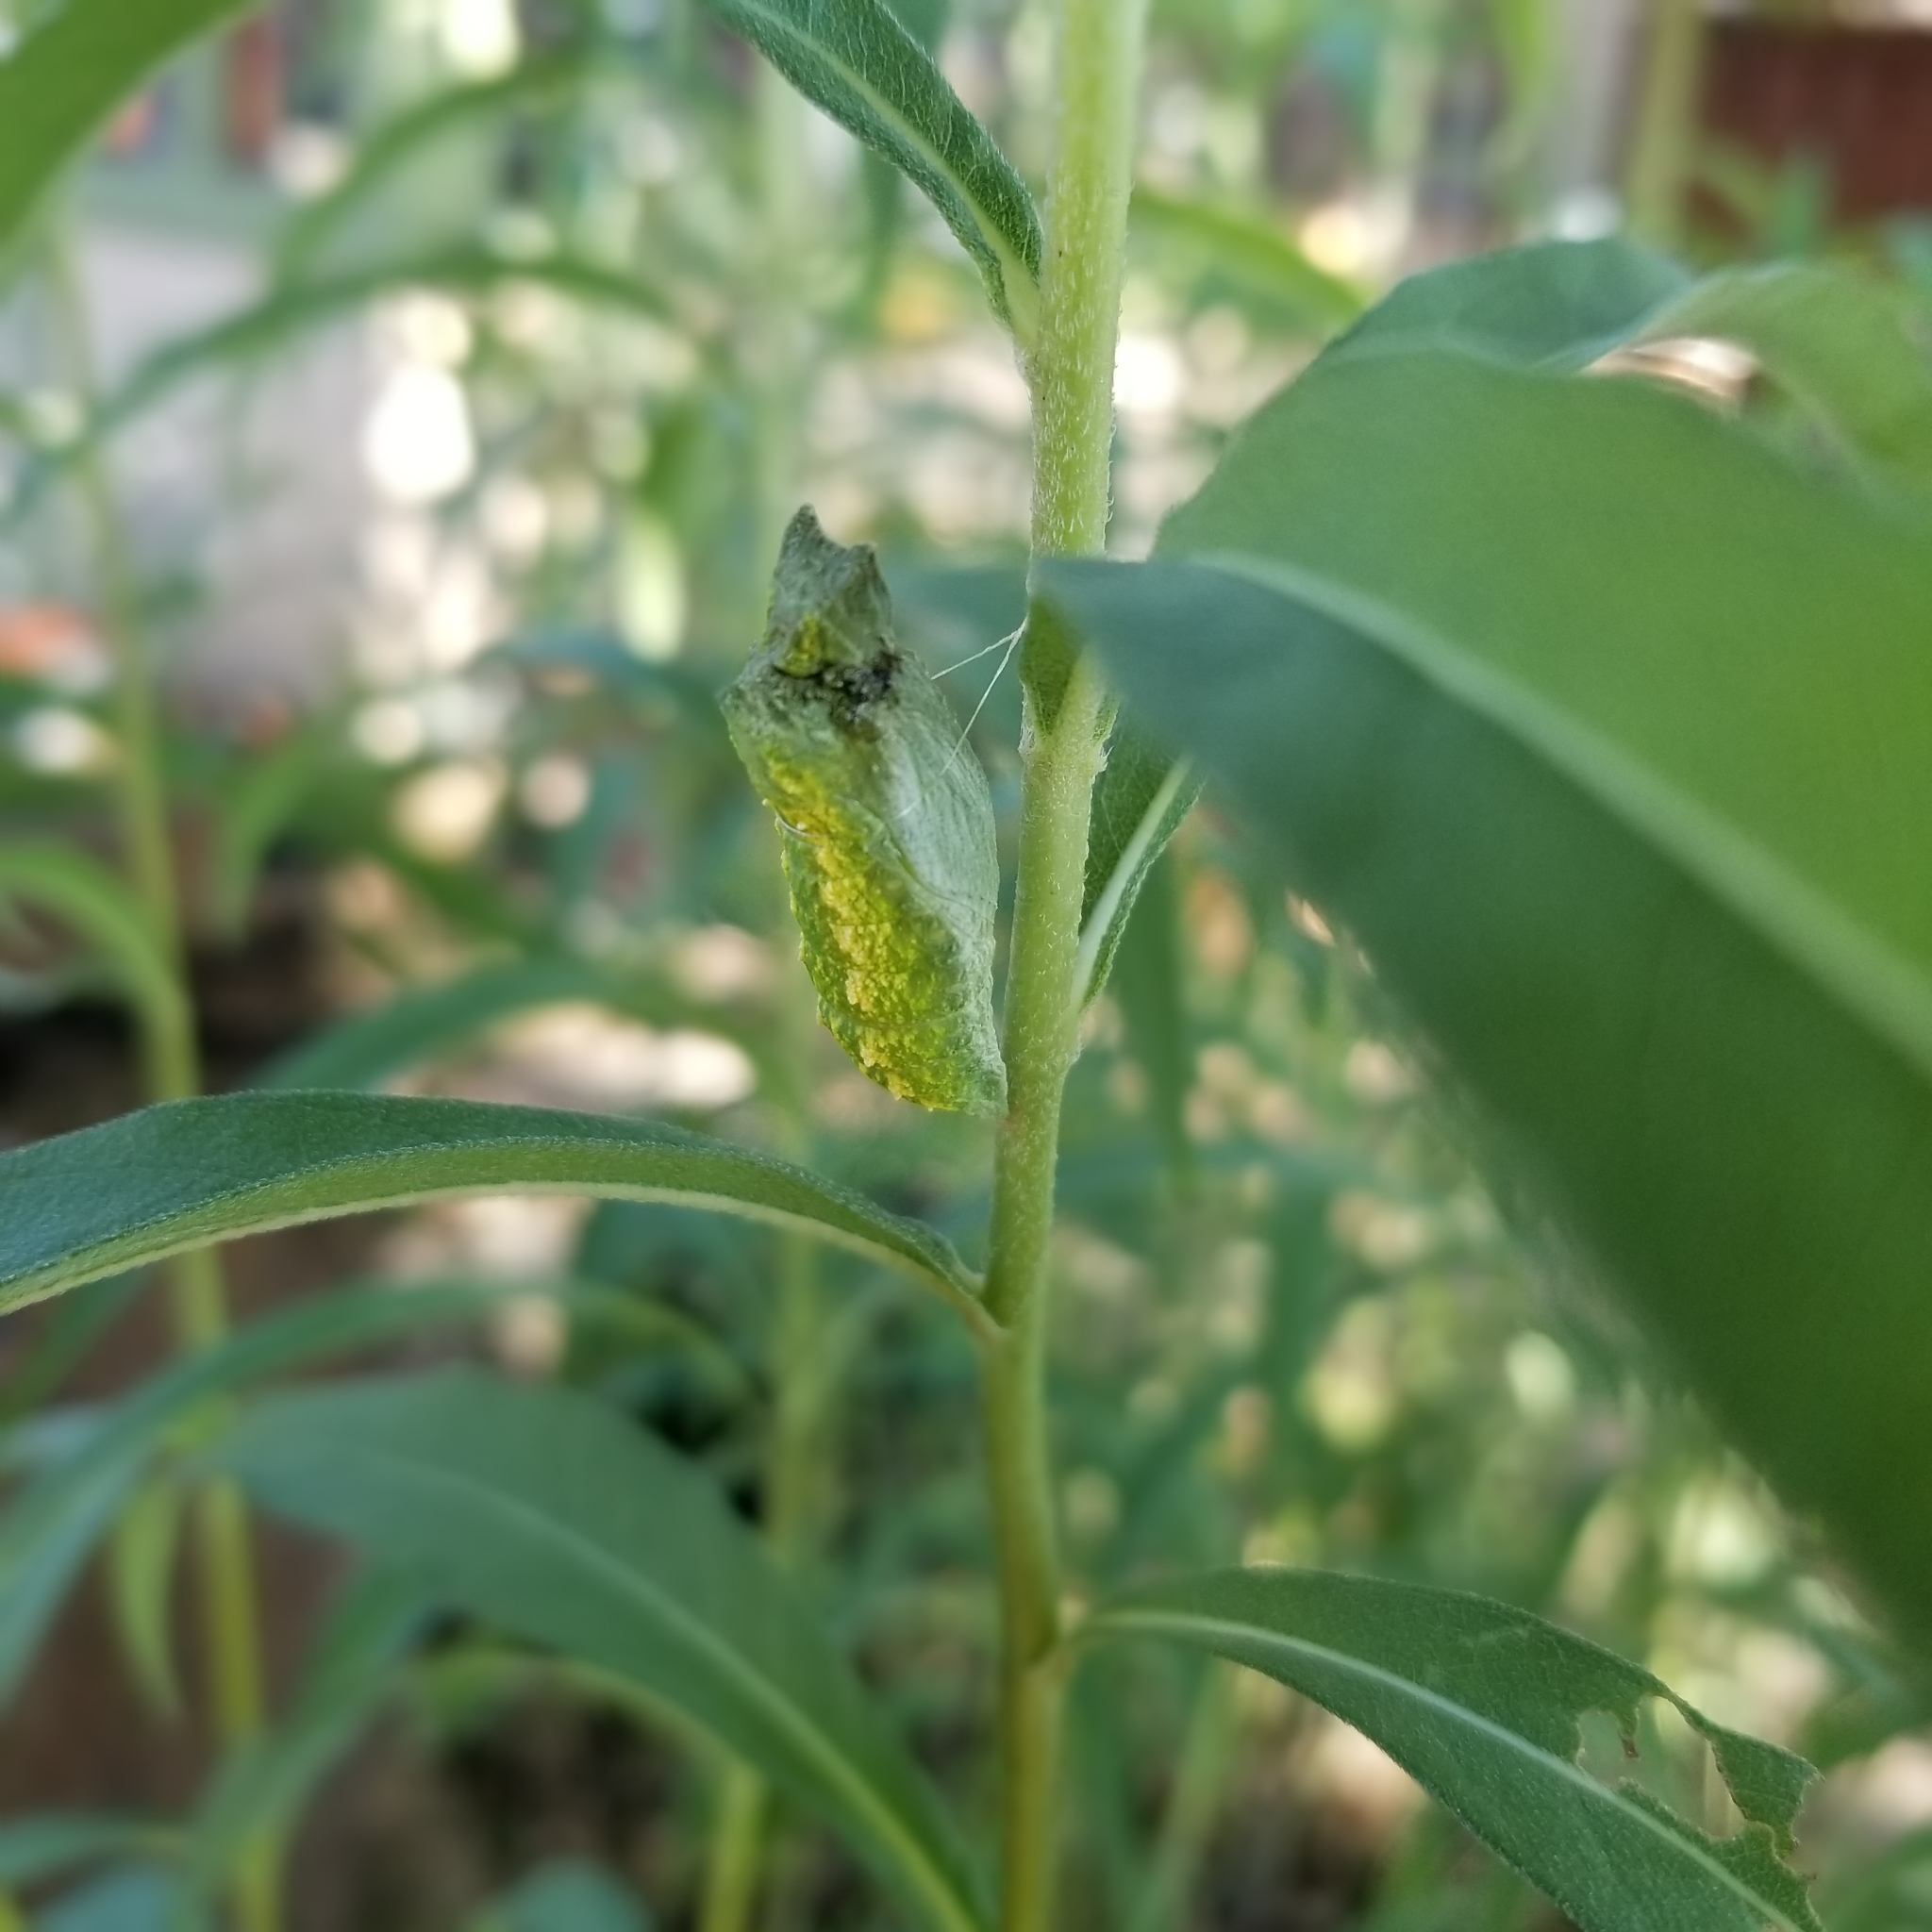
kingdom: Animalia
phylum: Arthropoda
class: Insecta
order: Lepidoptera
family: Papilionidae
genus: Papilio
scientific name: Papilio polyxenes
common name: Black swallowtail
